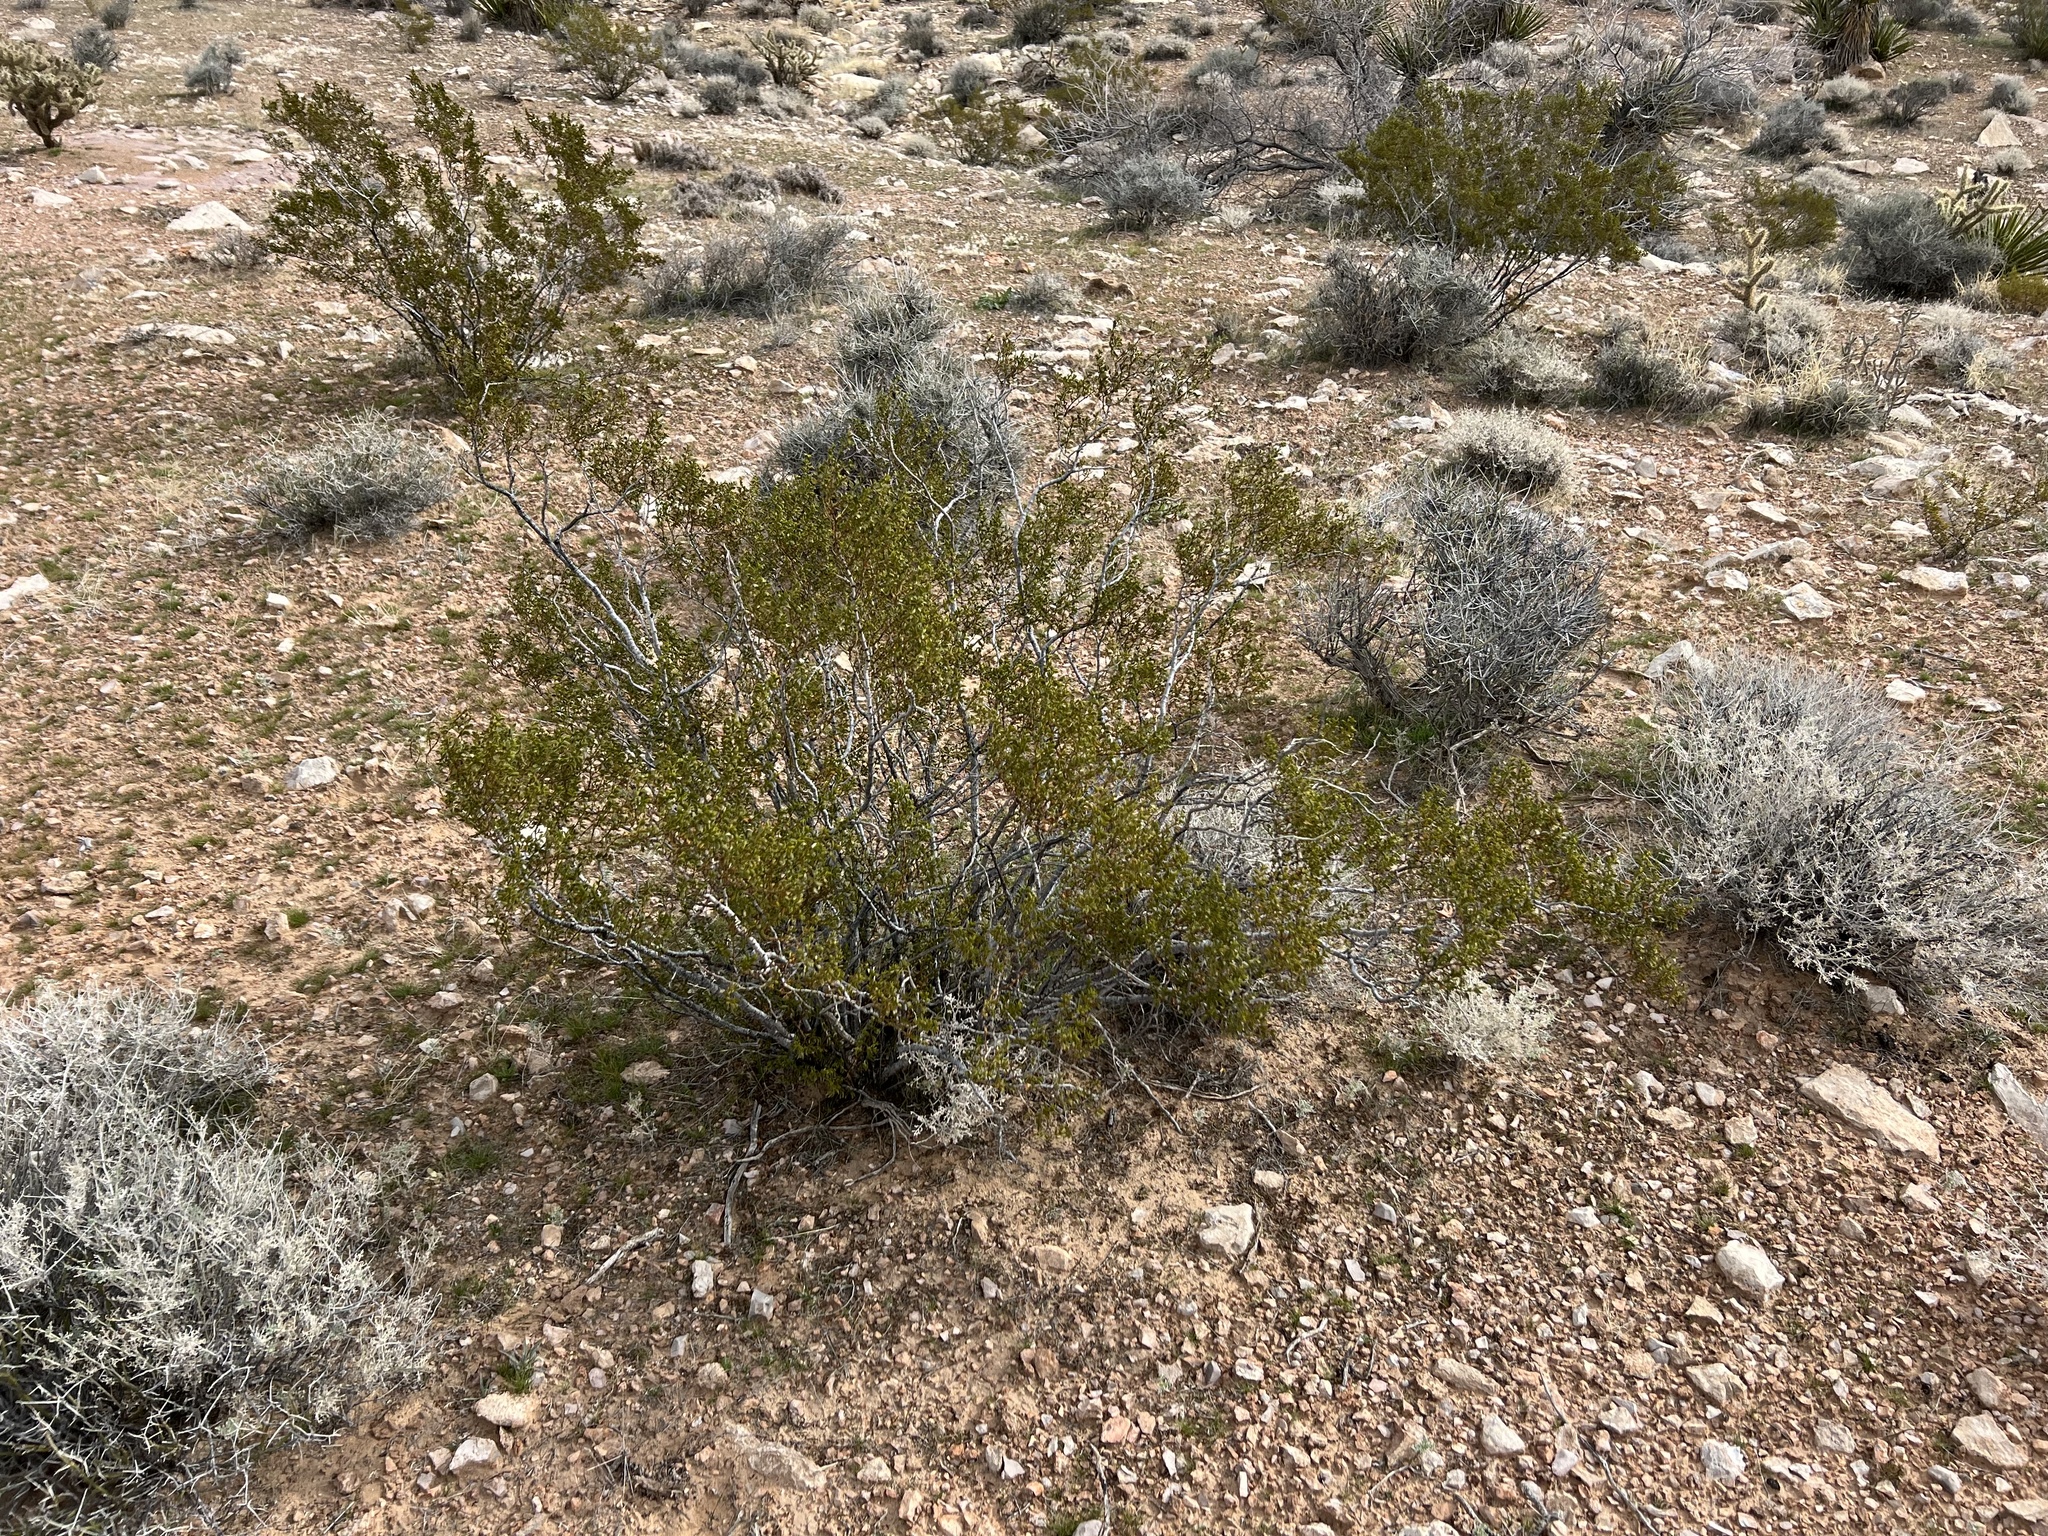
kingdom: Plantae
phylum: Tracheophyta
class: Magnoliopsida
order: Zygophyllales
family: Zygophyllaceae
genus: Larrea
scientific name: Larrea tridentata
